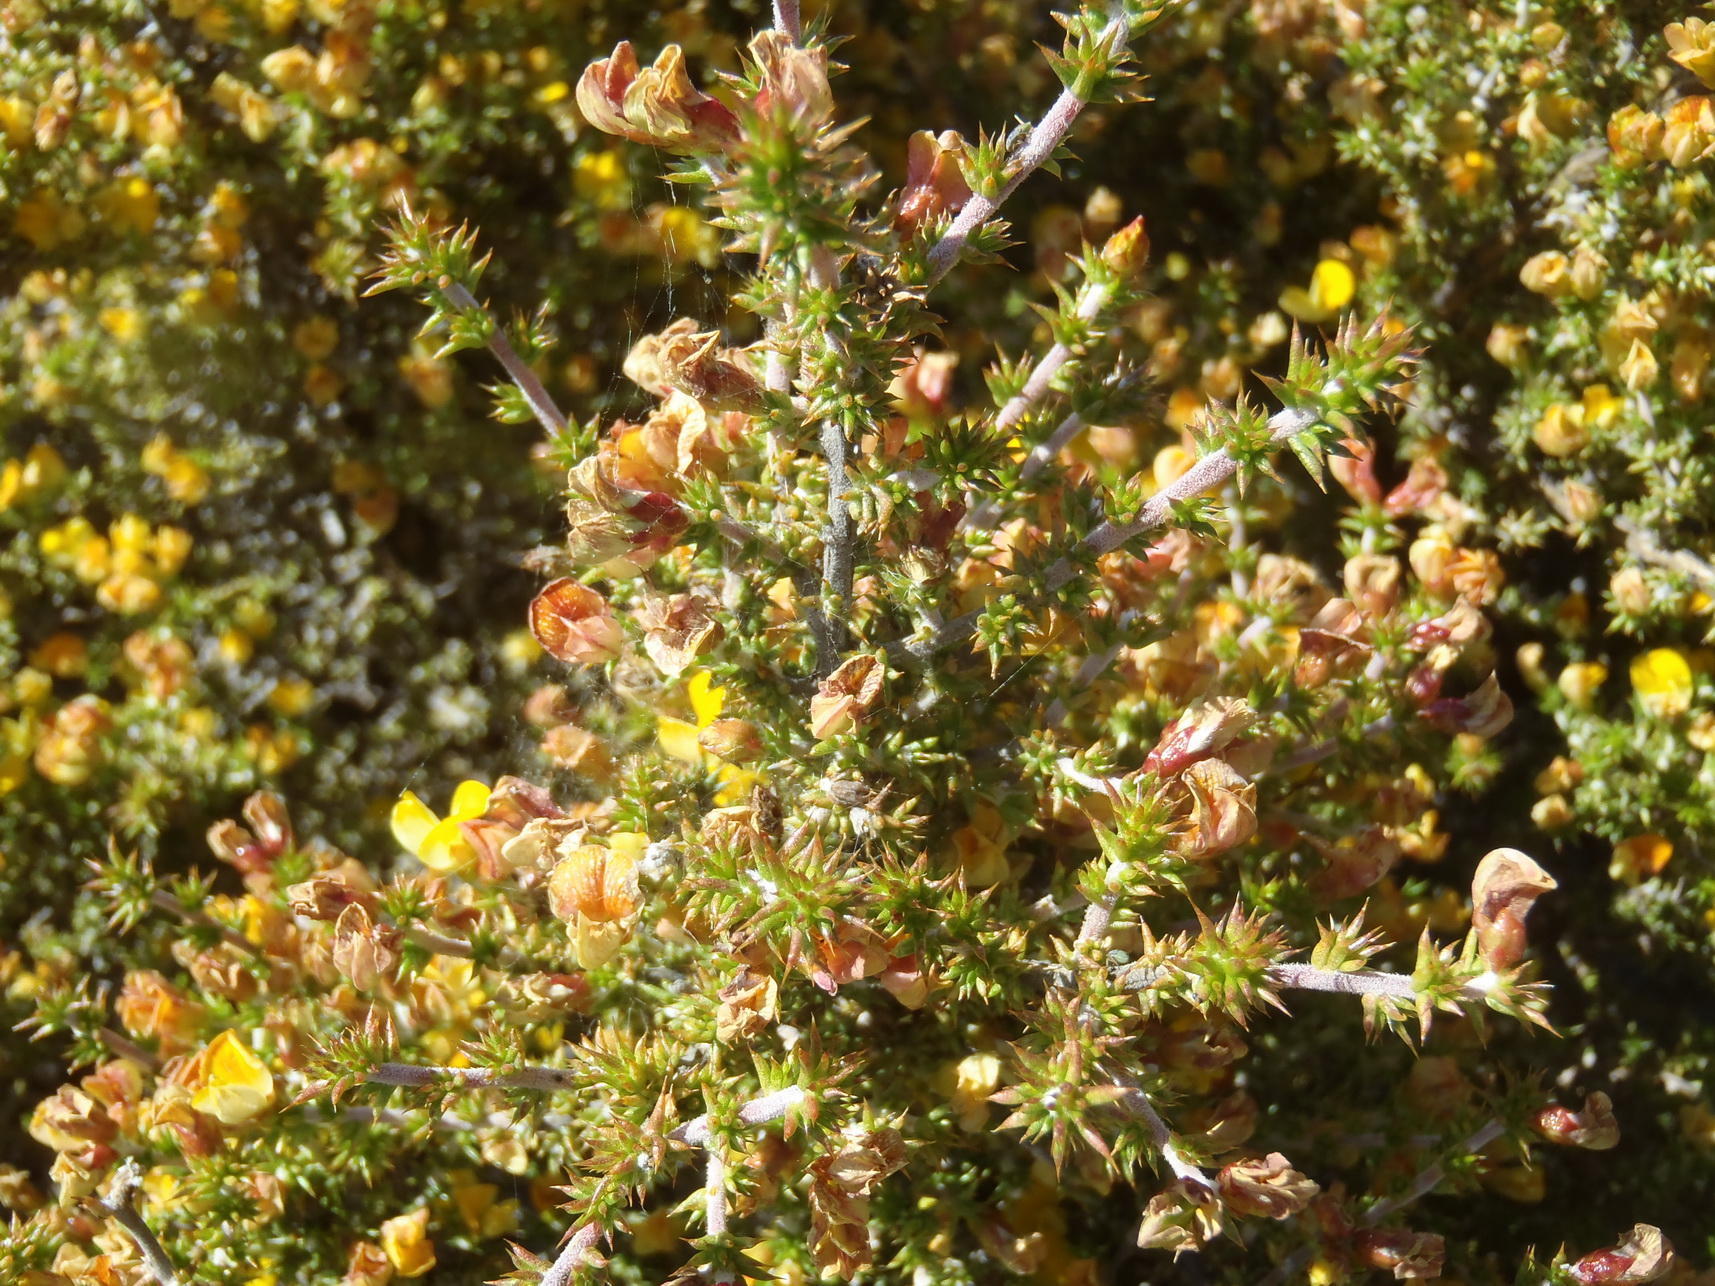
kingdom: Plantae
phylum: Tracheophyta
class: Magnoliopsida
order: Fabales
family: Fabaceae
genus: Aspalathus
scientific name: Aspalathus aciphylla
